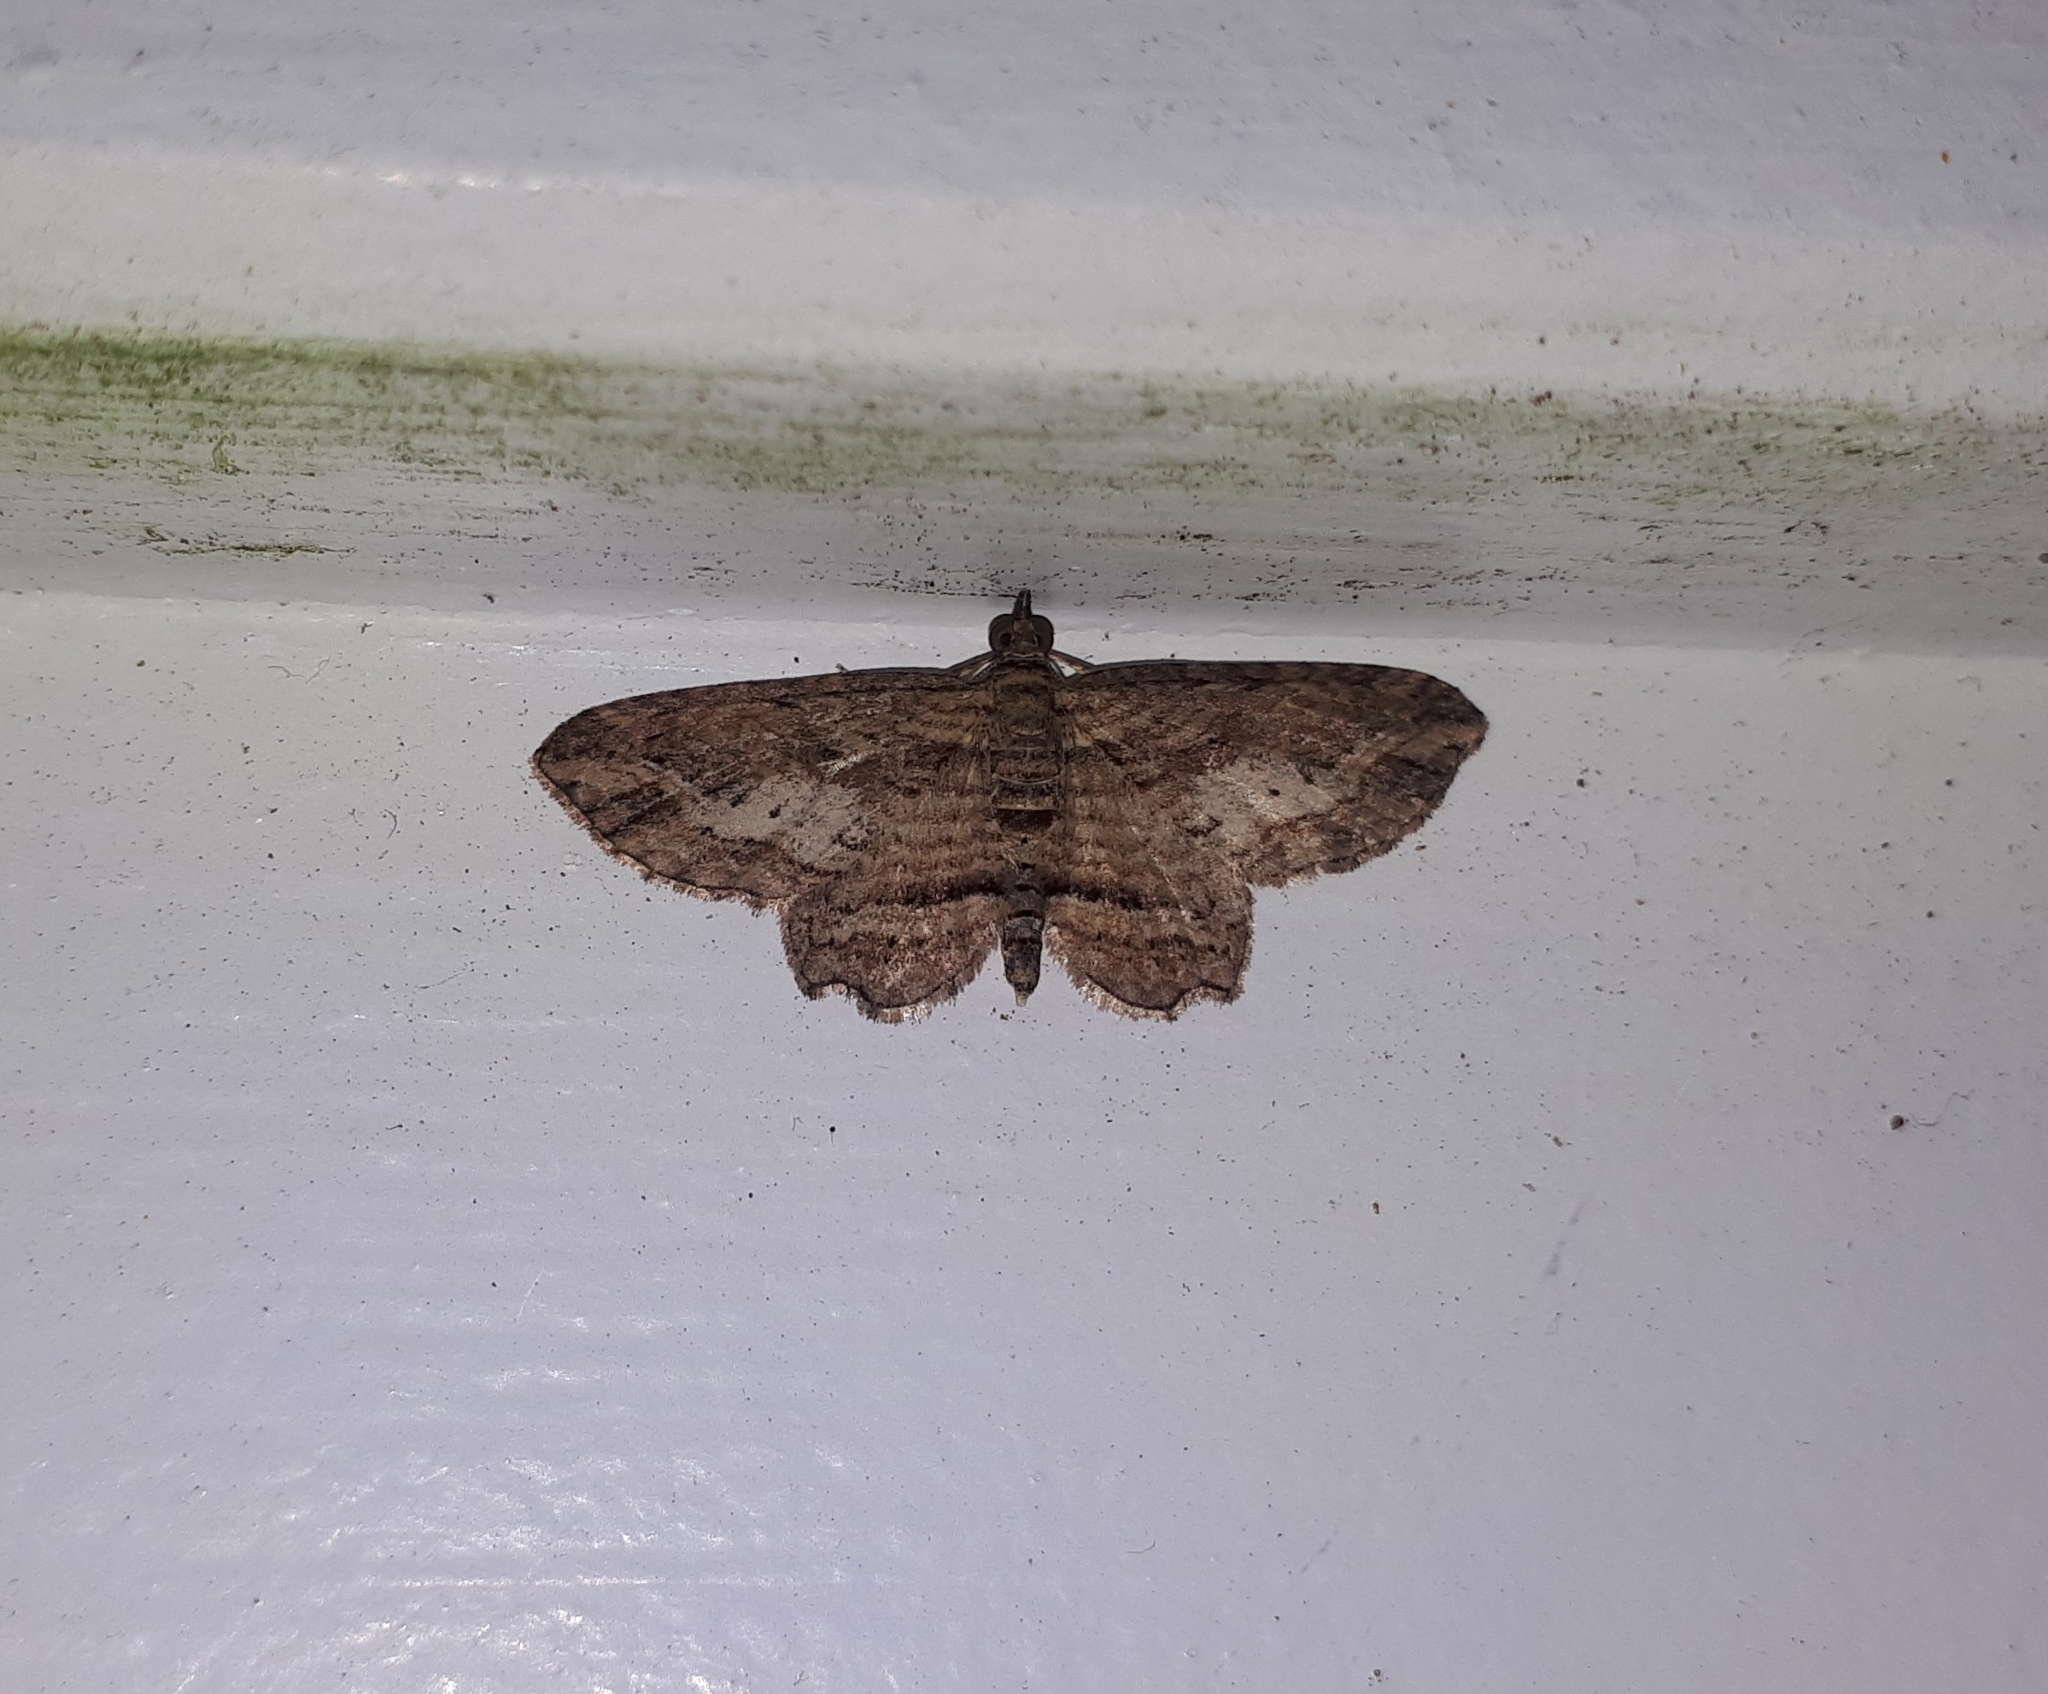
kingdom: Animalia
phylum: Arthropoda
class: Insecta
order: Lepidoptera
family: Geometridae
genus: Chloroclystis
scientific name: Chloroclystis filata
